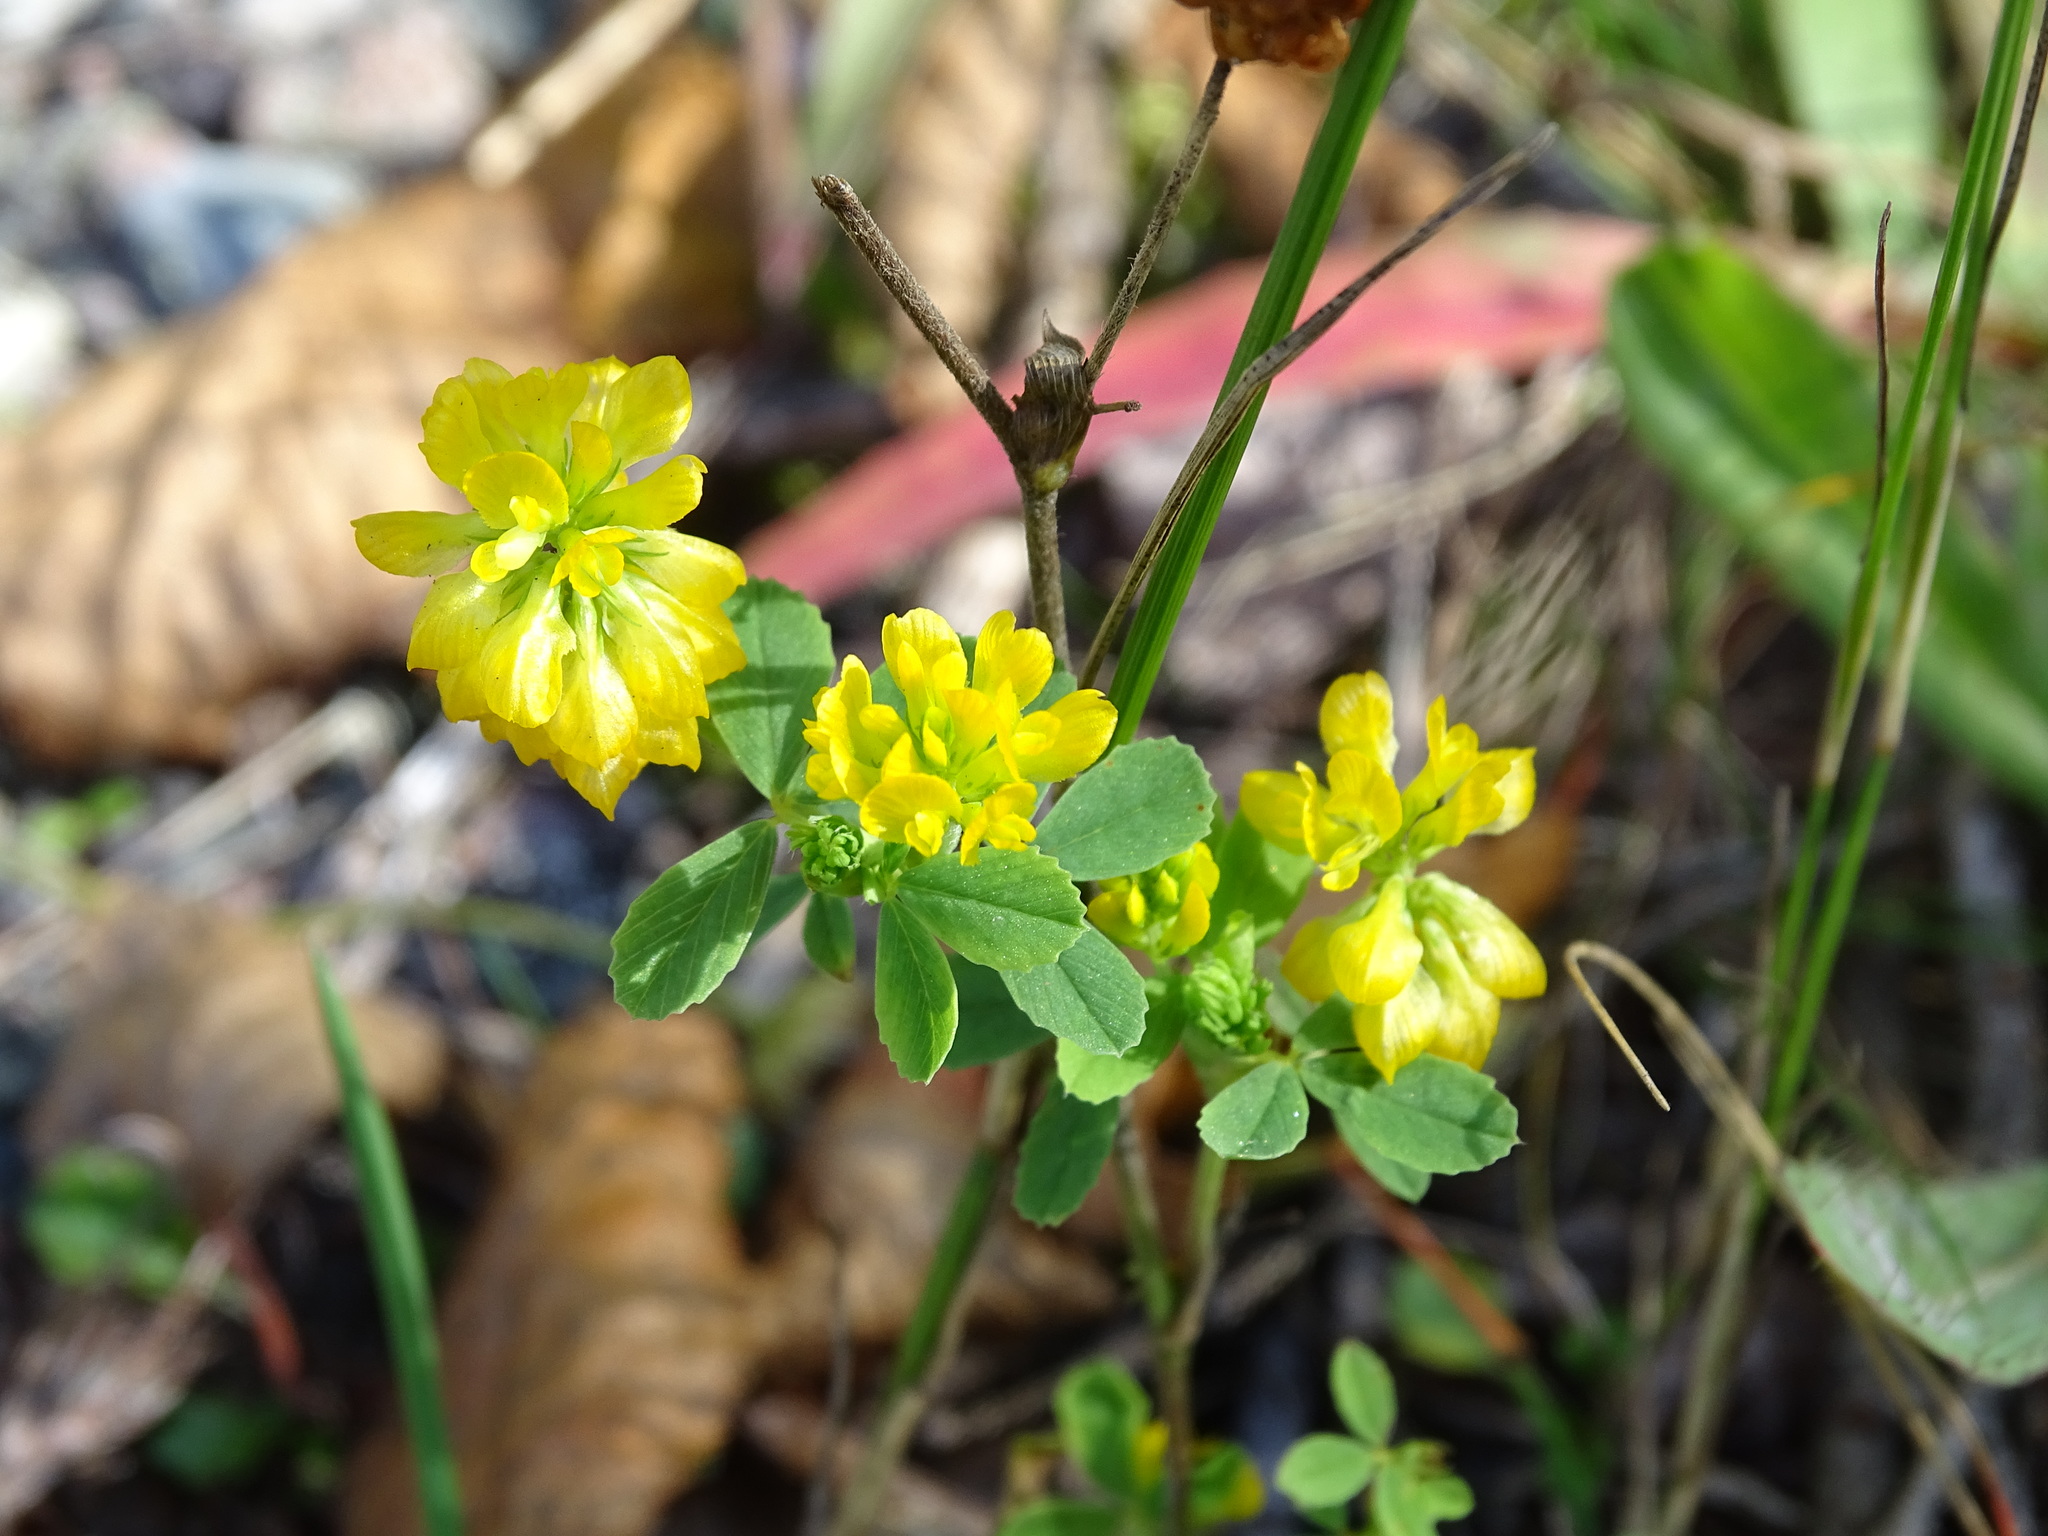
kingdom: Plantae
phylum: Tracheophyta
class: Magnoliopsida
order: Fabales
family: Fabaceae
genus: Trifolium
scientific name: Trifolium aureum
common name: Golden clover
